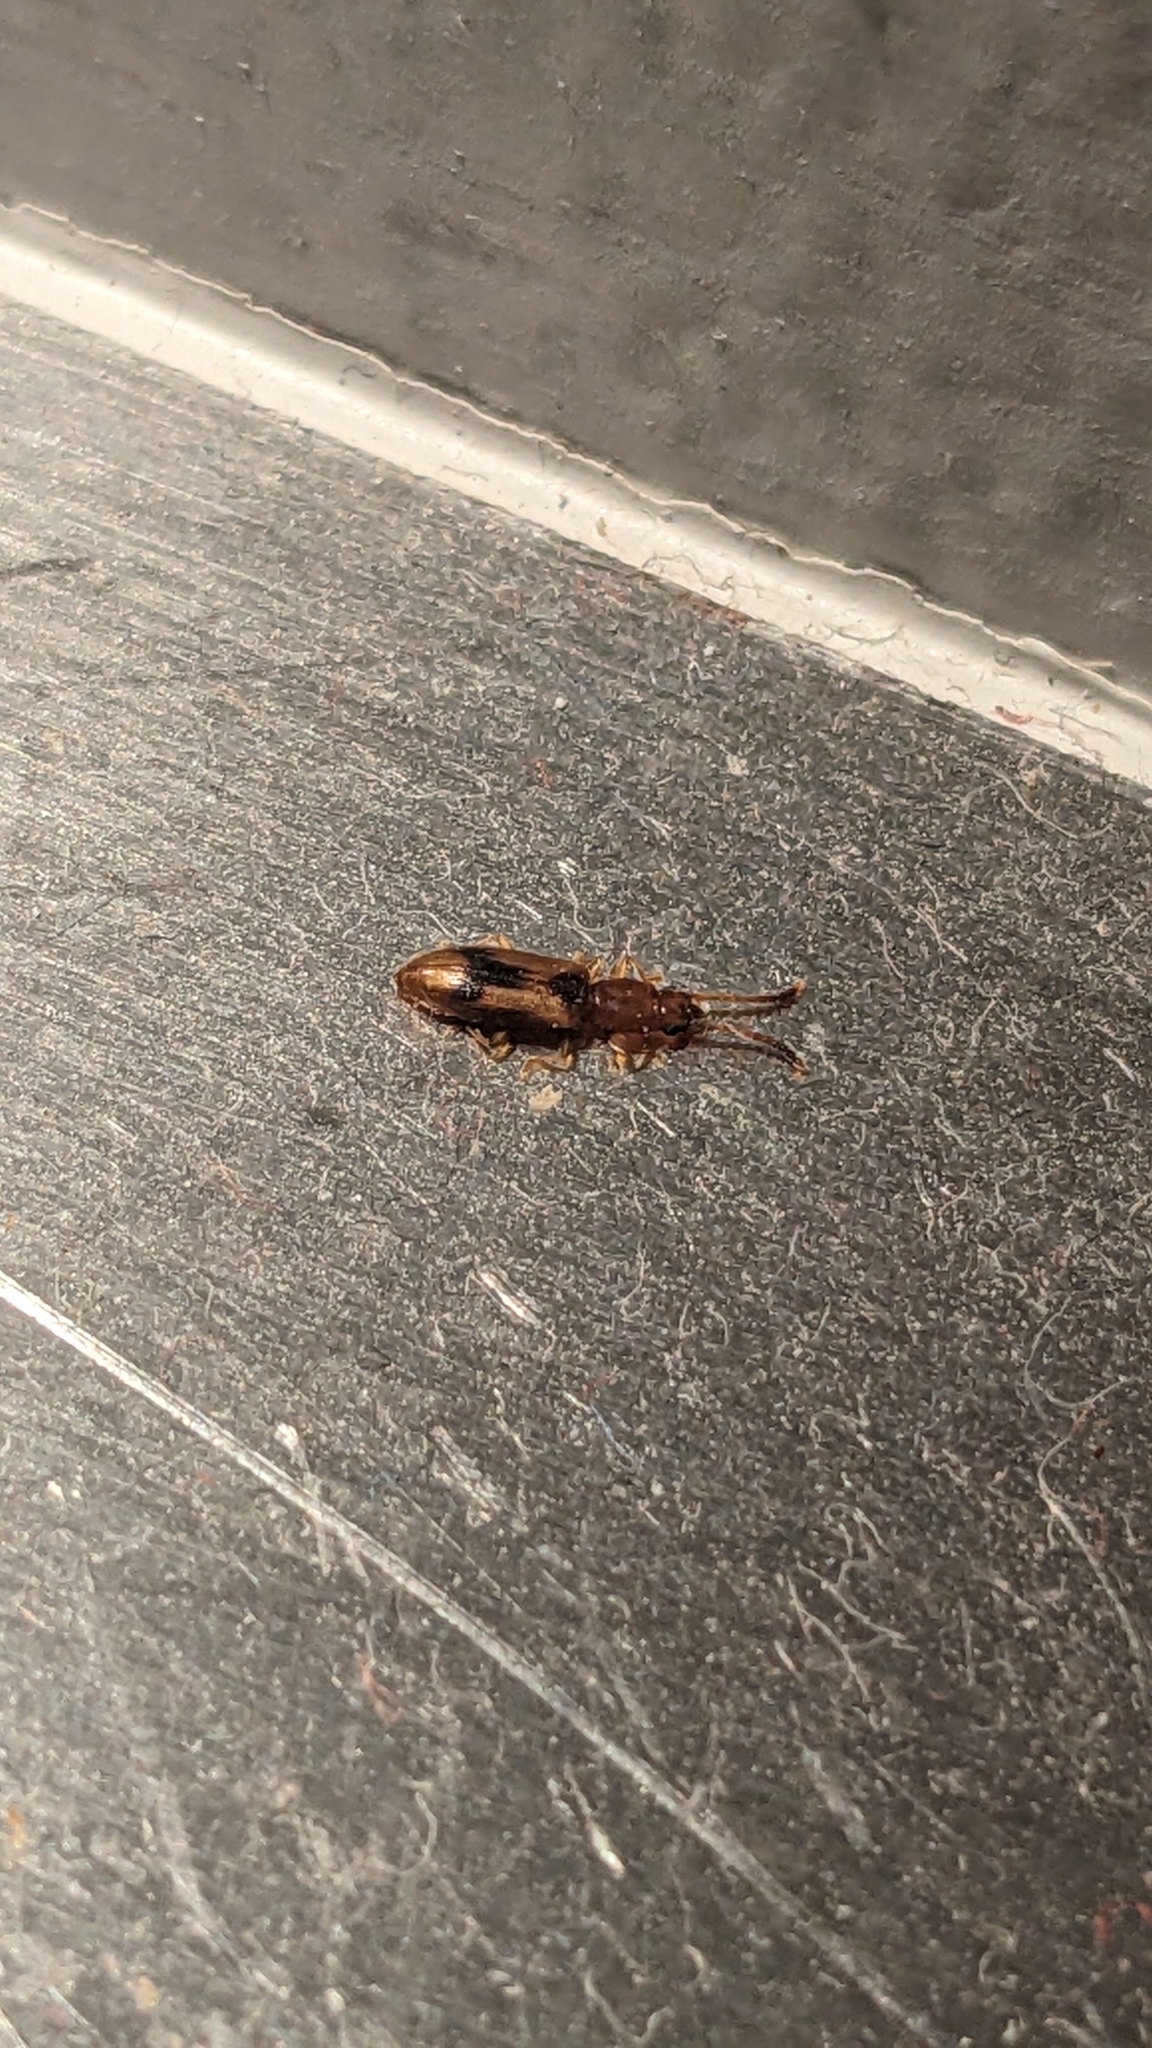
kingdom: Animalia
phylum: Arthropoda
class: Insecta
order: Coleoptera
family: Silvanidae
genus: Cryptamorpha
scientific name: Cryptamorpha desjardinsi
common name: Cryptamorpha
